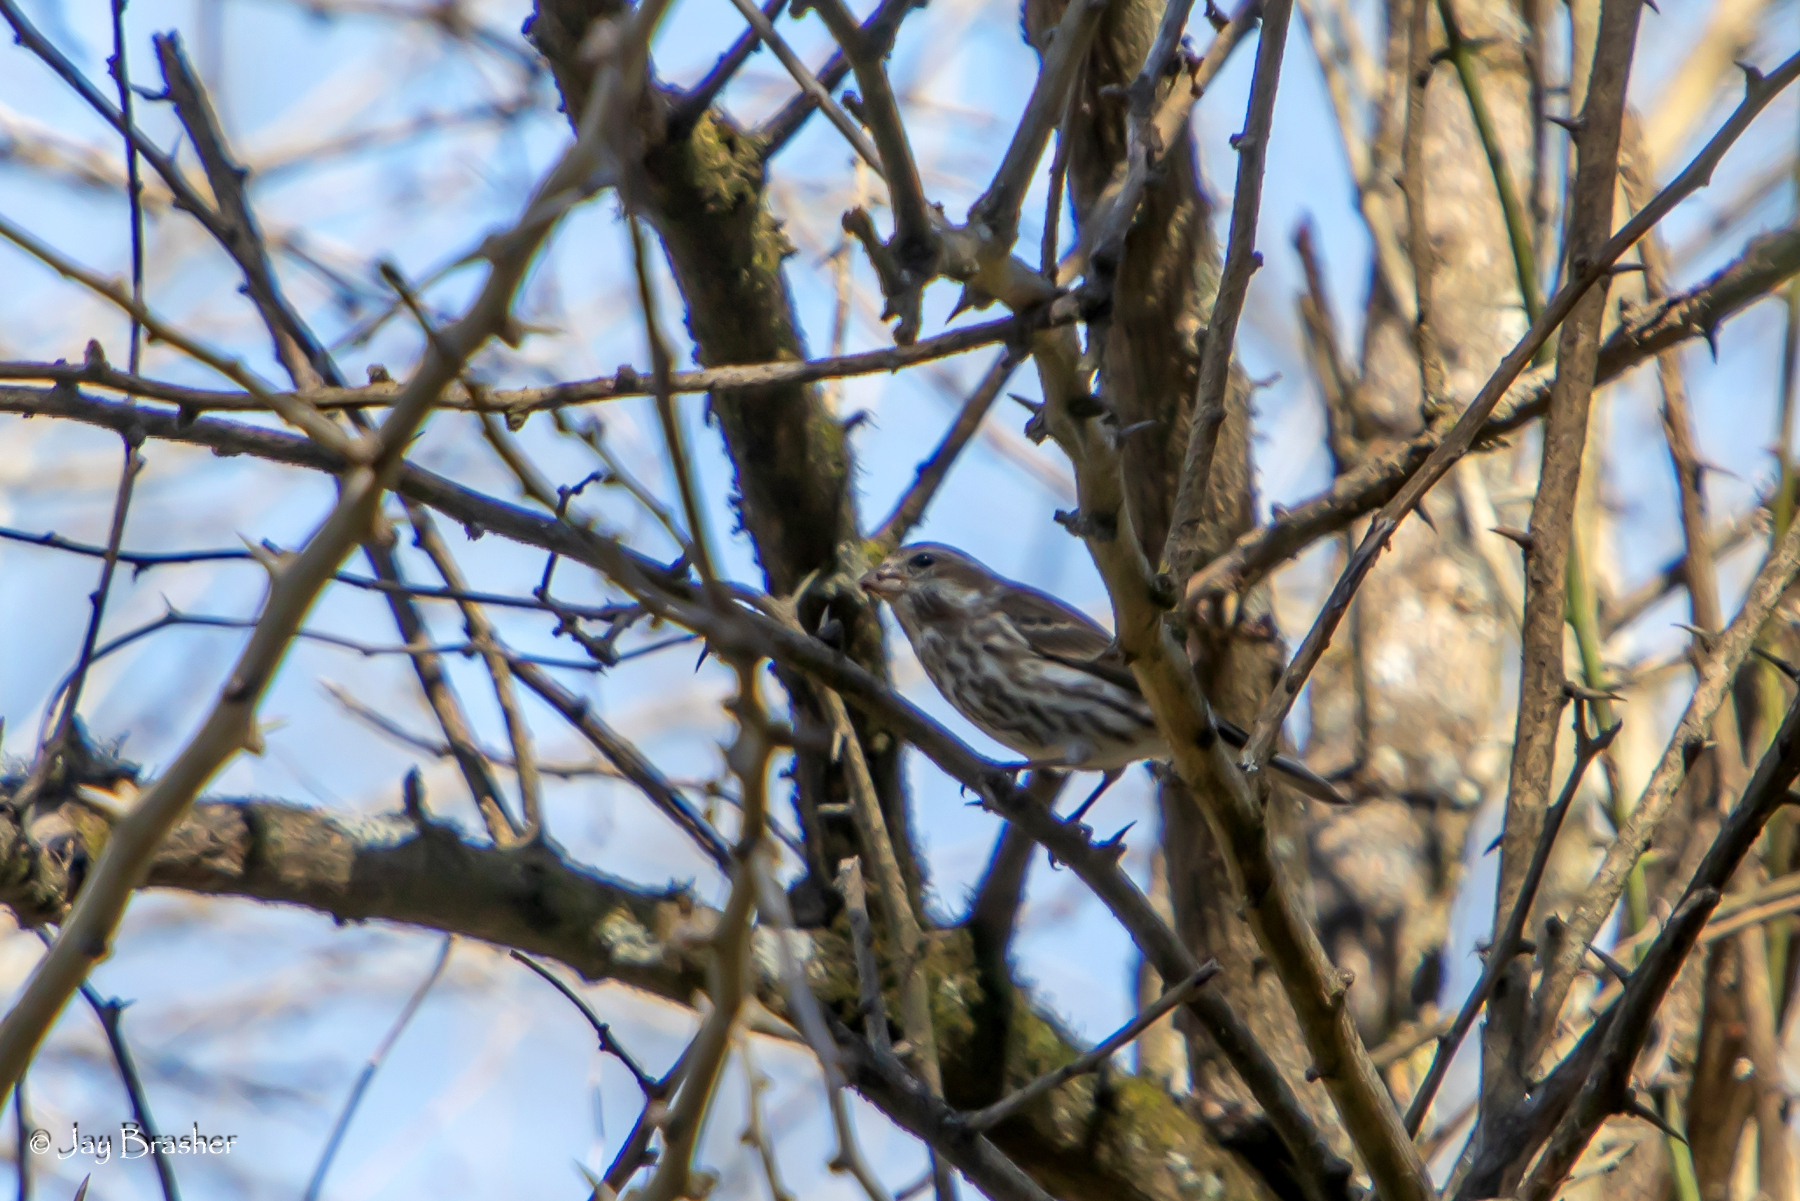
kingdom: Animalia
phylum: Chordata
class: Aves
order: Passeriformes
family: Fringillidae
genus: Haemorhous
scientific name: Haemorhous purpureus
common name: Purple finch
